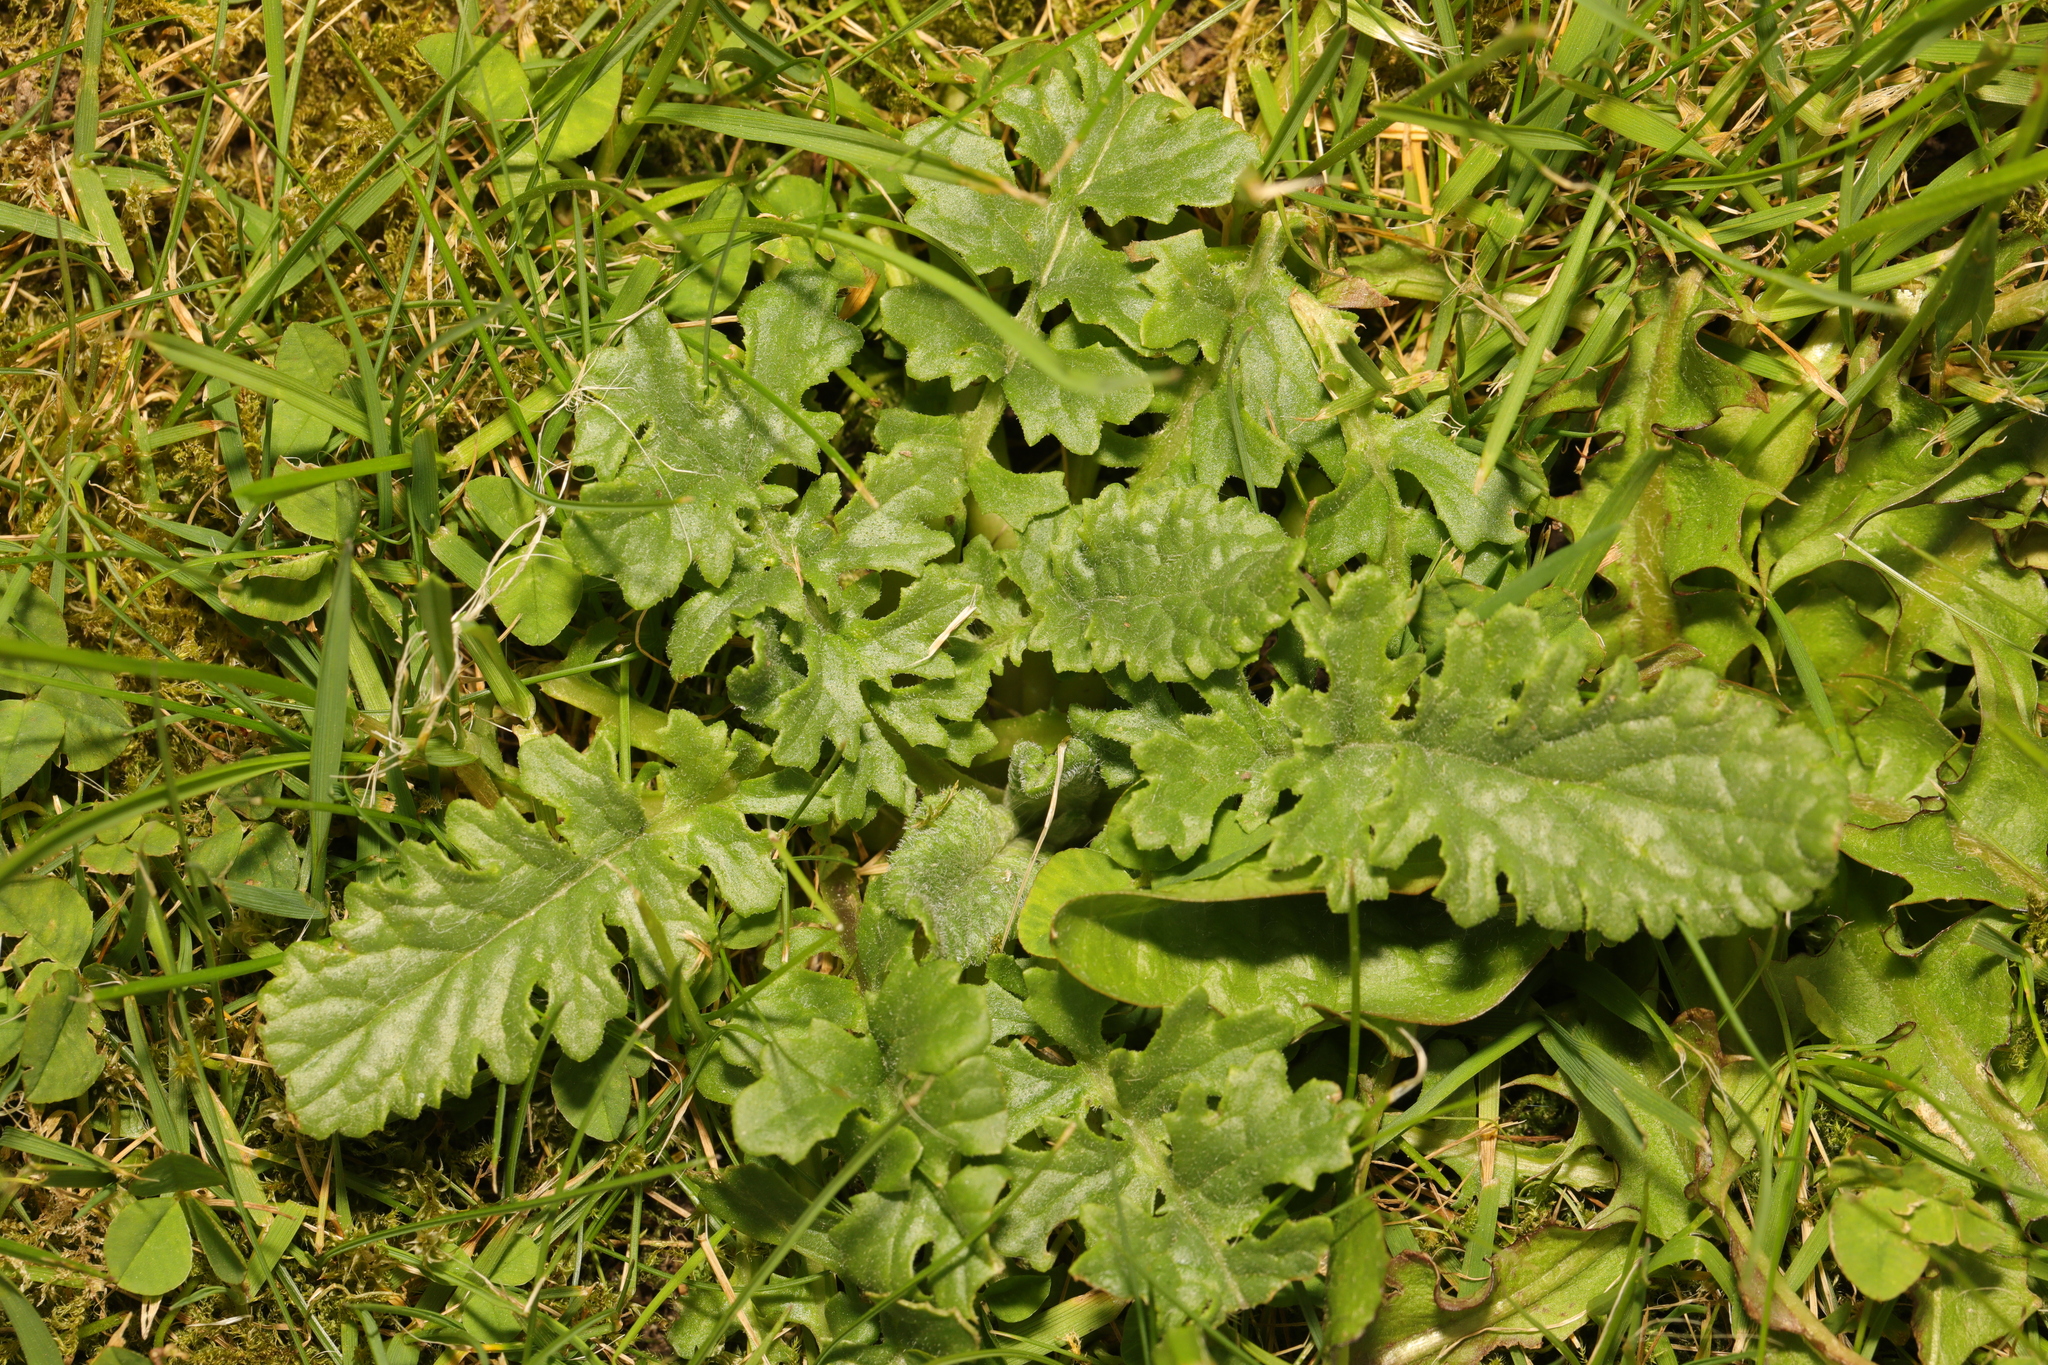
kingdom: Plantae
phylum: Tracheophyta
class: Magnoliopsida
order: Asterales
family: Asteraceae
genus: Jacobaea
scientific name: Jacobaea vulgaris
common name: Stinking willie
